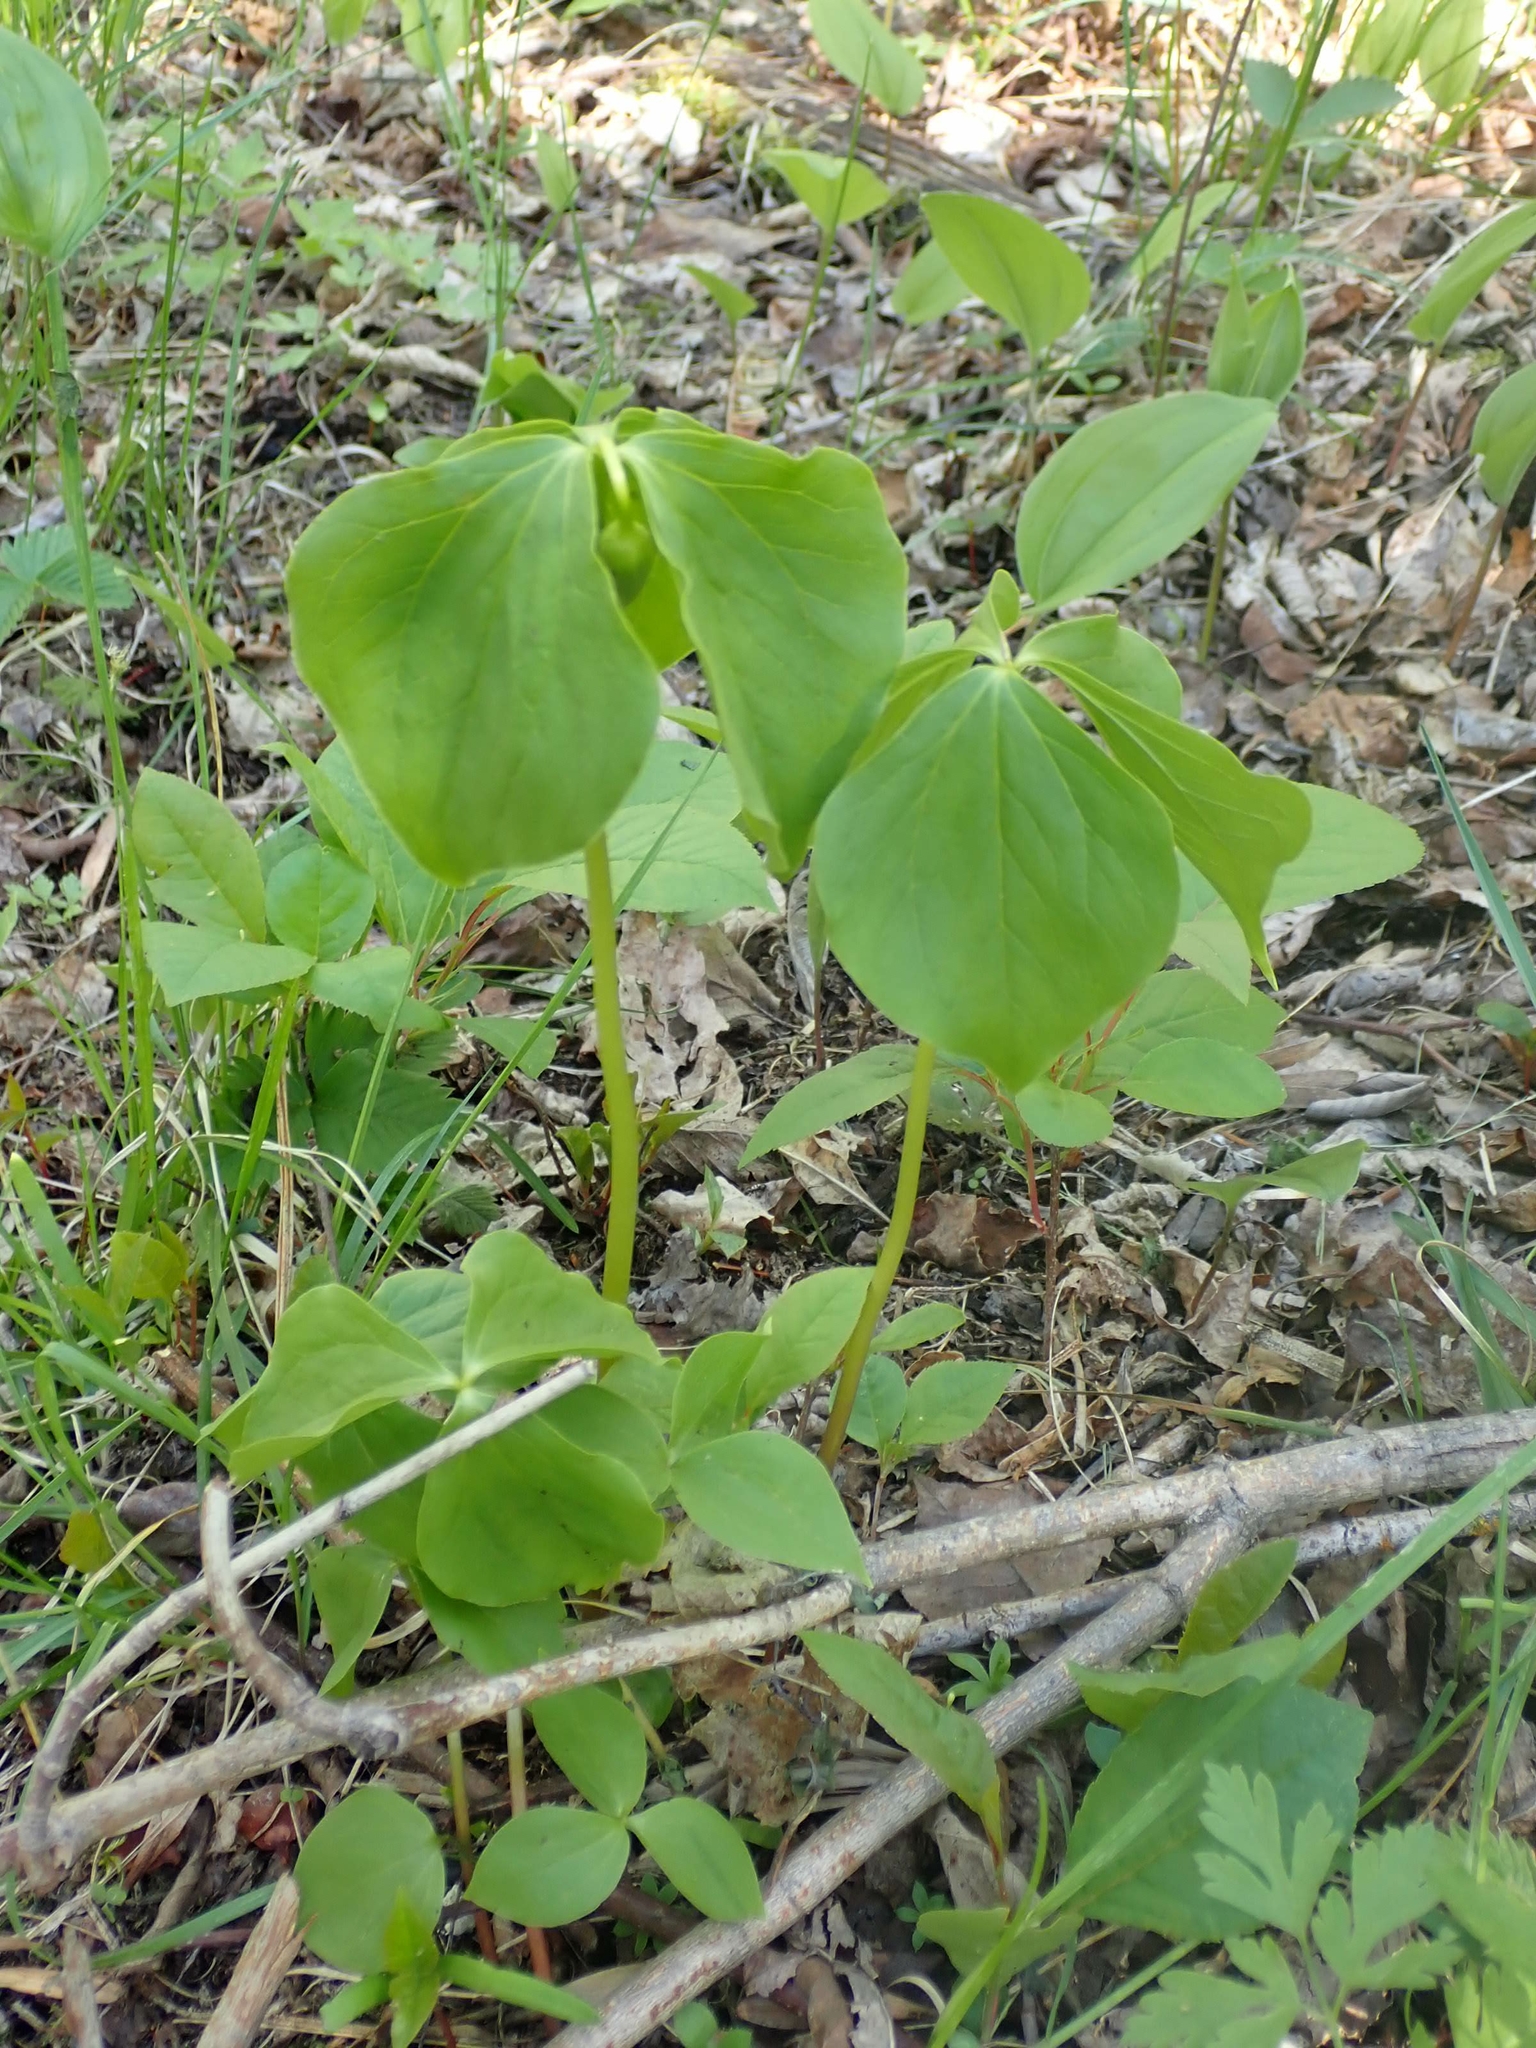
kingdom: Plantae
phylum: Tracheophyta
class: Liliopsida
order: Liliales
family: Melanthiaceae
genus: Trillium
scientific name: Trillium cernuum
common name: Nodding trillium
